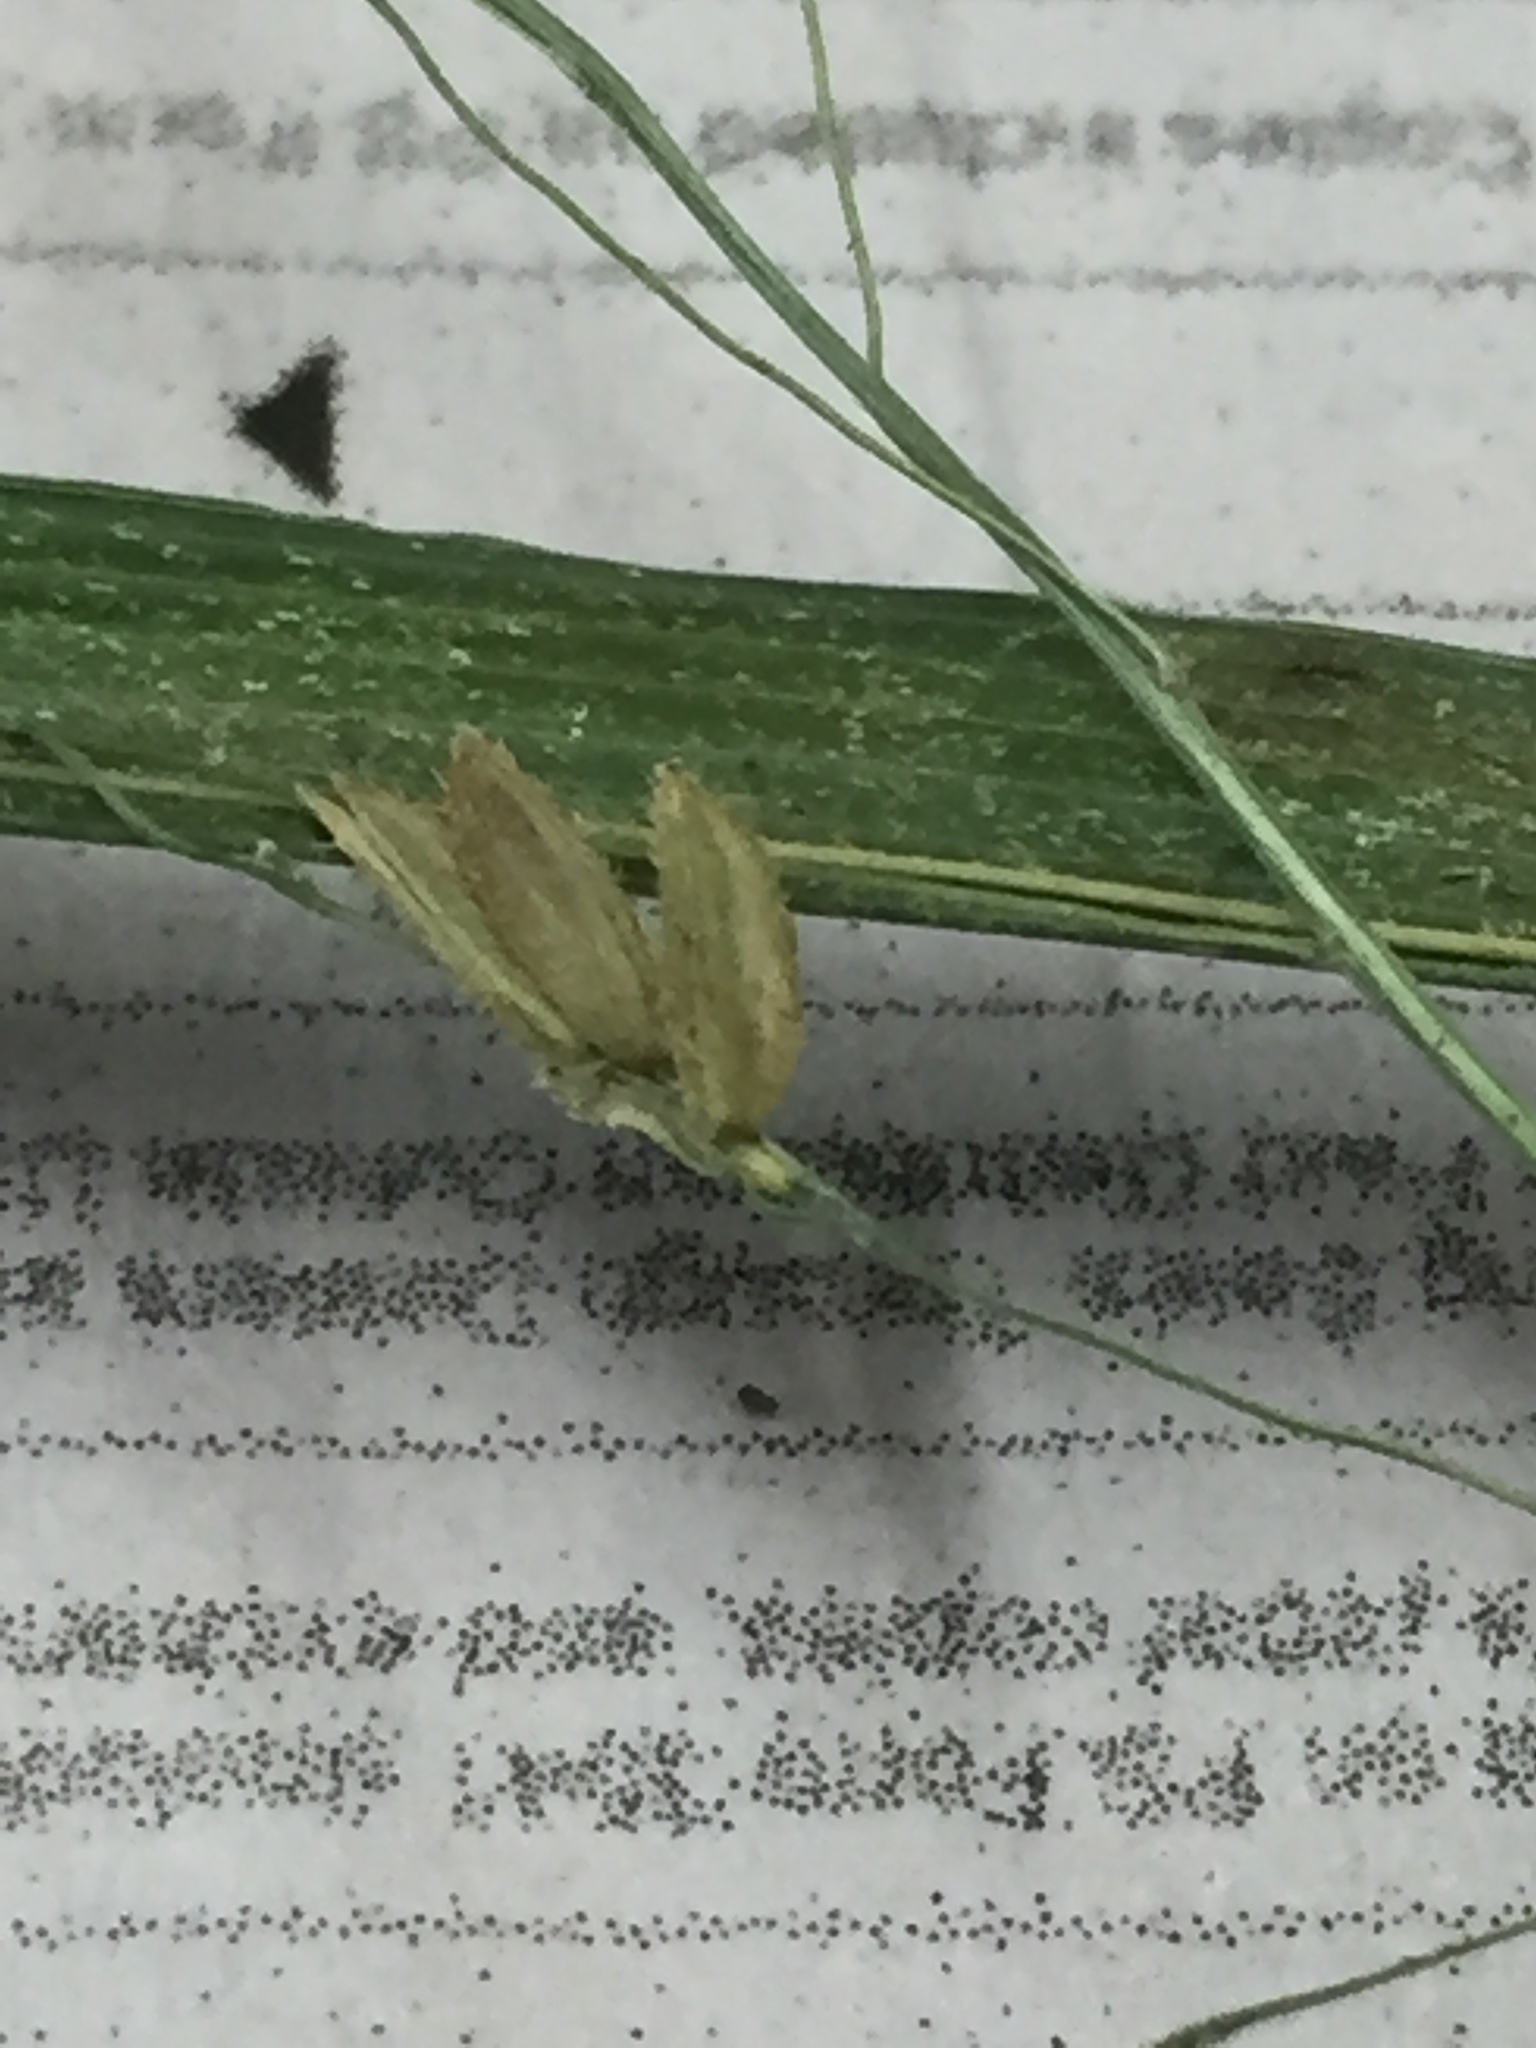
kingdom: Plantae
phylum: Tracheophyta
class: Liliopsida
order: Poales
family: Poaceae
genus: Leersia
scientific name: Leersia oryzoides
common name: Cut-grass
